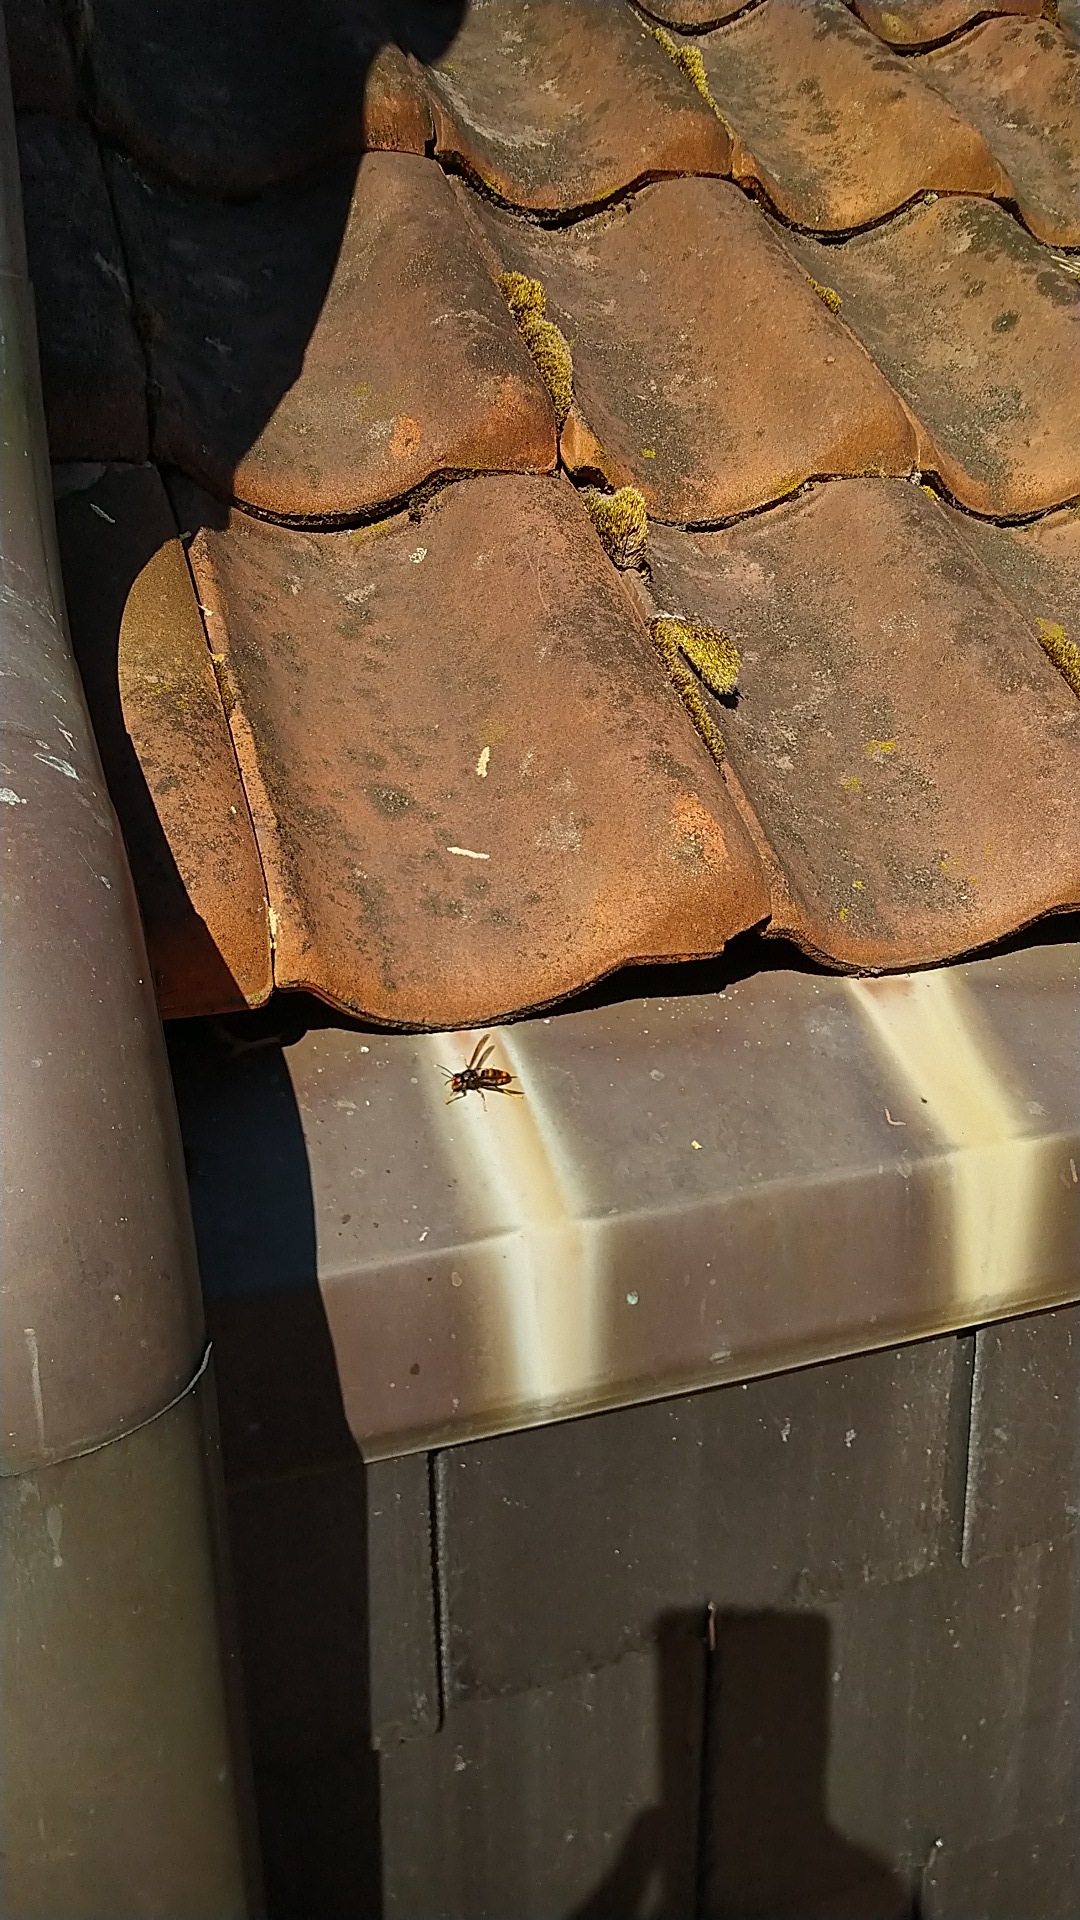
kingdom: Animalia
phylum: Arthropoda
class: Insecta
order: Hymenoptera
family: Vespidae
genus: Vespa
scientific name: Vespa velutina
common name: Asian hornet
